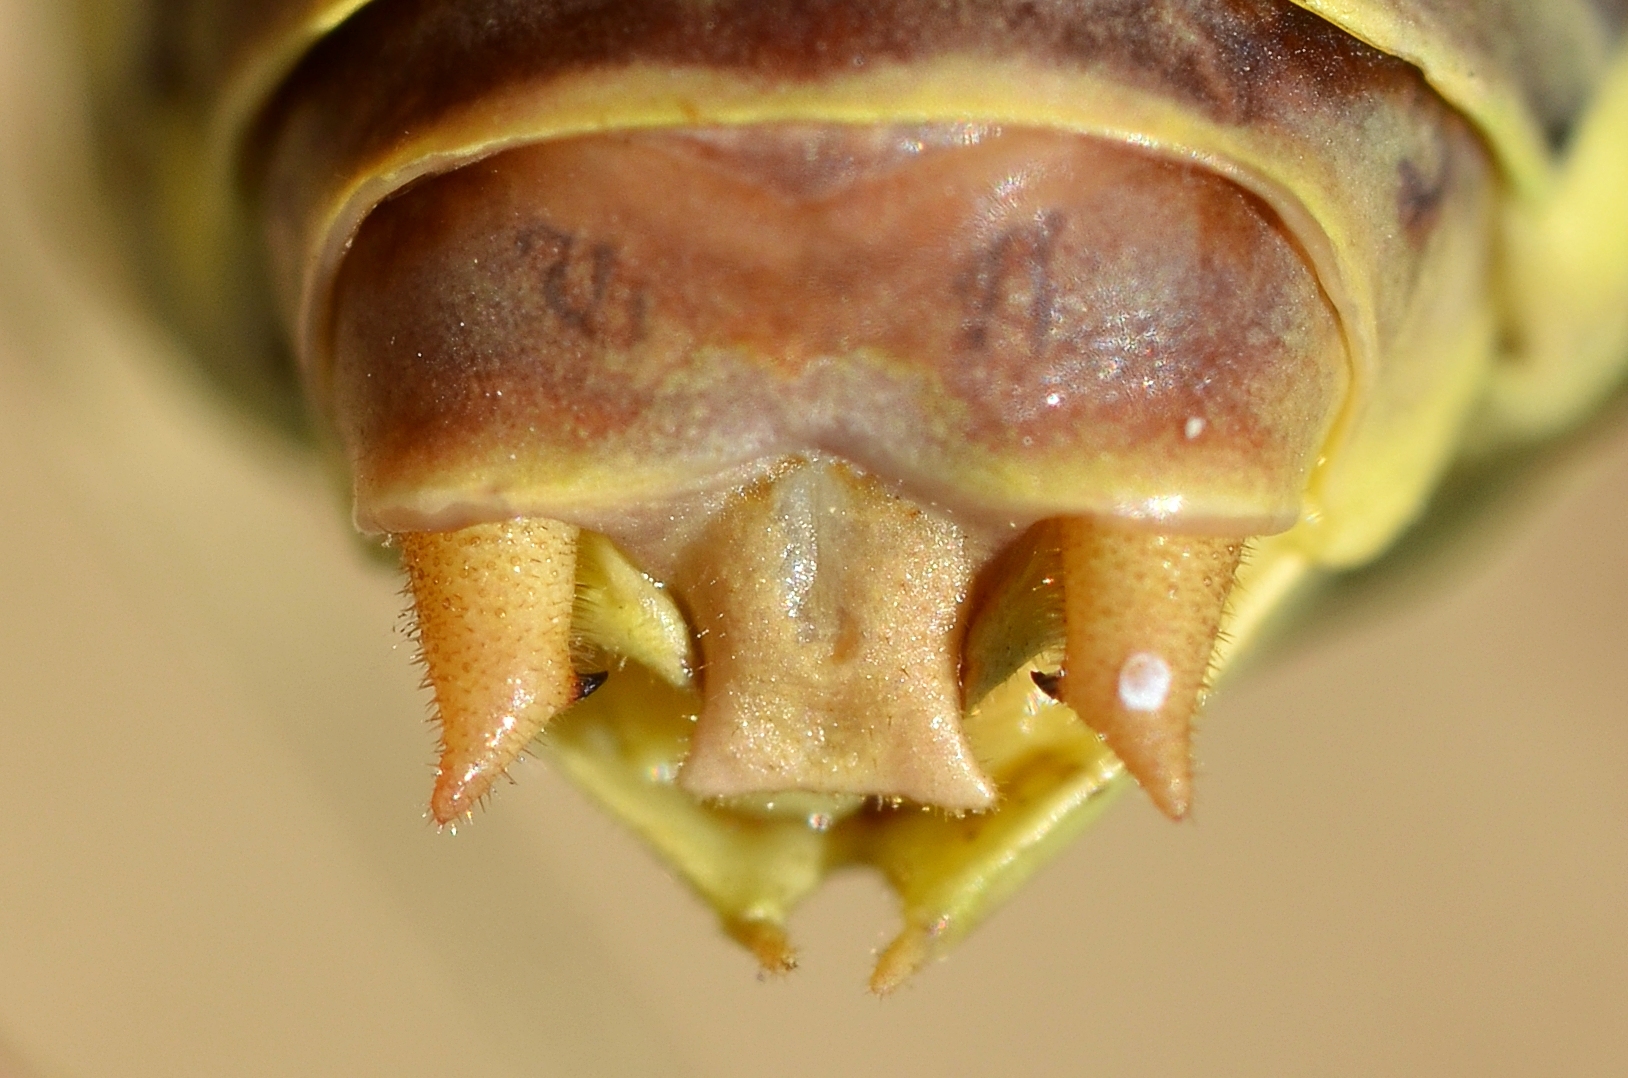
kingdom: Animalia
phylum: Arthropoda
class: Insecta
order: Orthoptera
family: Tettigoniidae
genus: Ephippiger
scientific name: Ephippiger diurnus
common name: Western saddle bush-cricket
